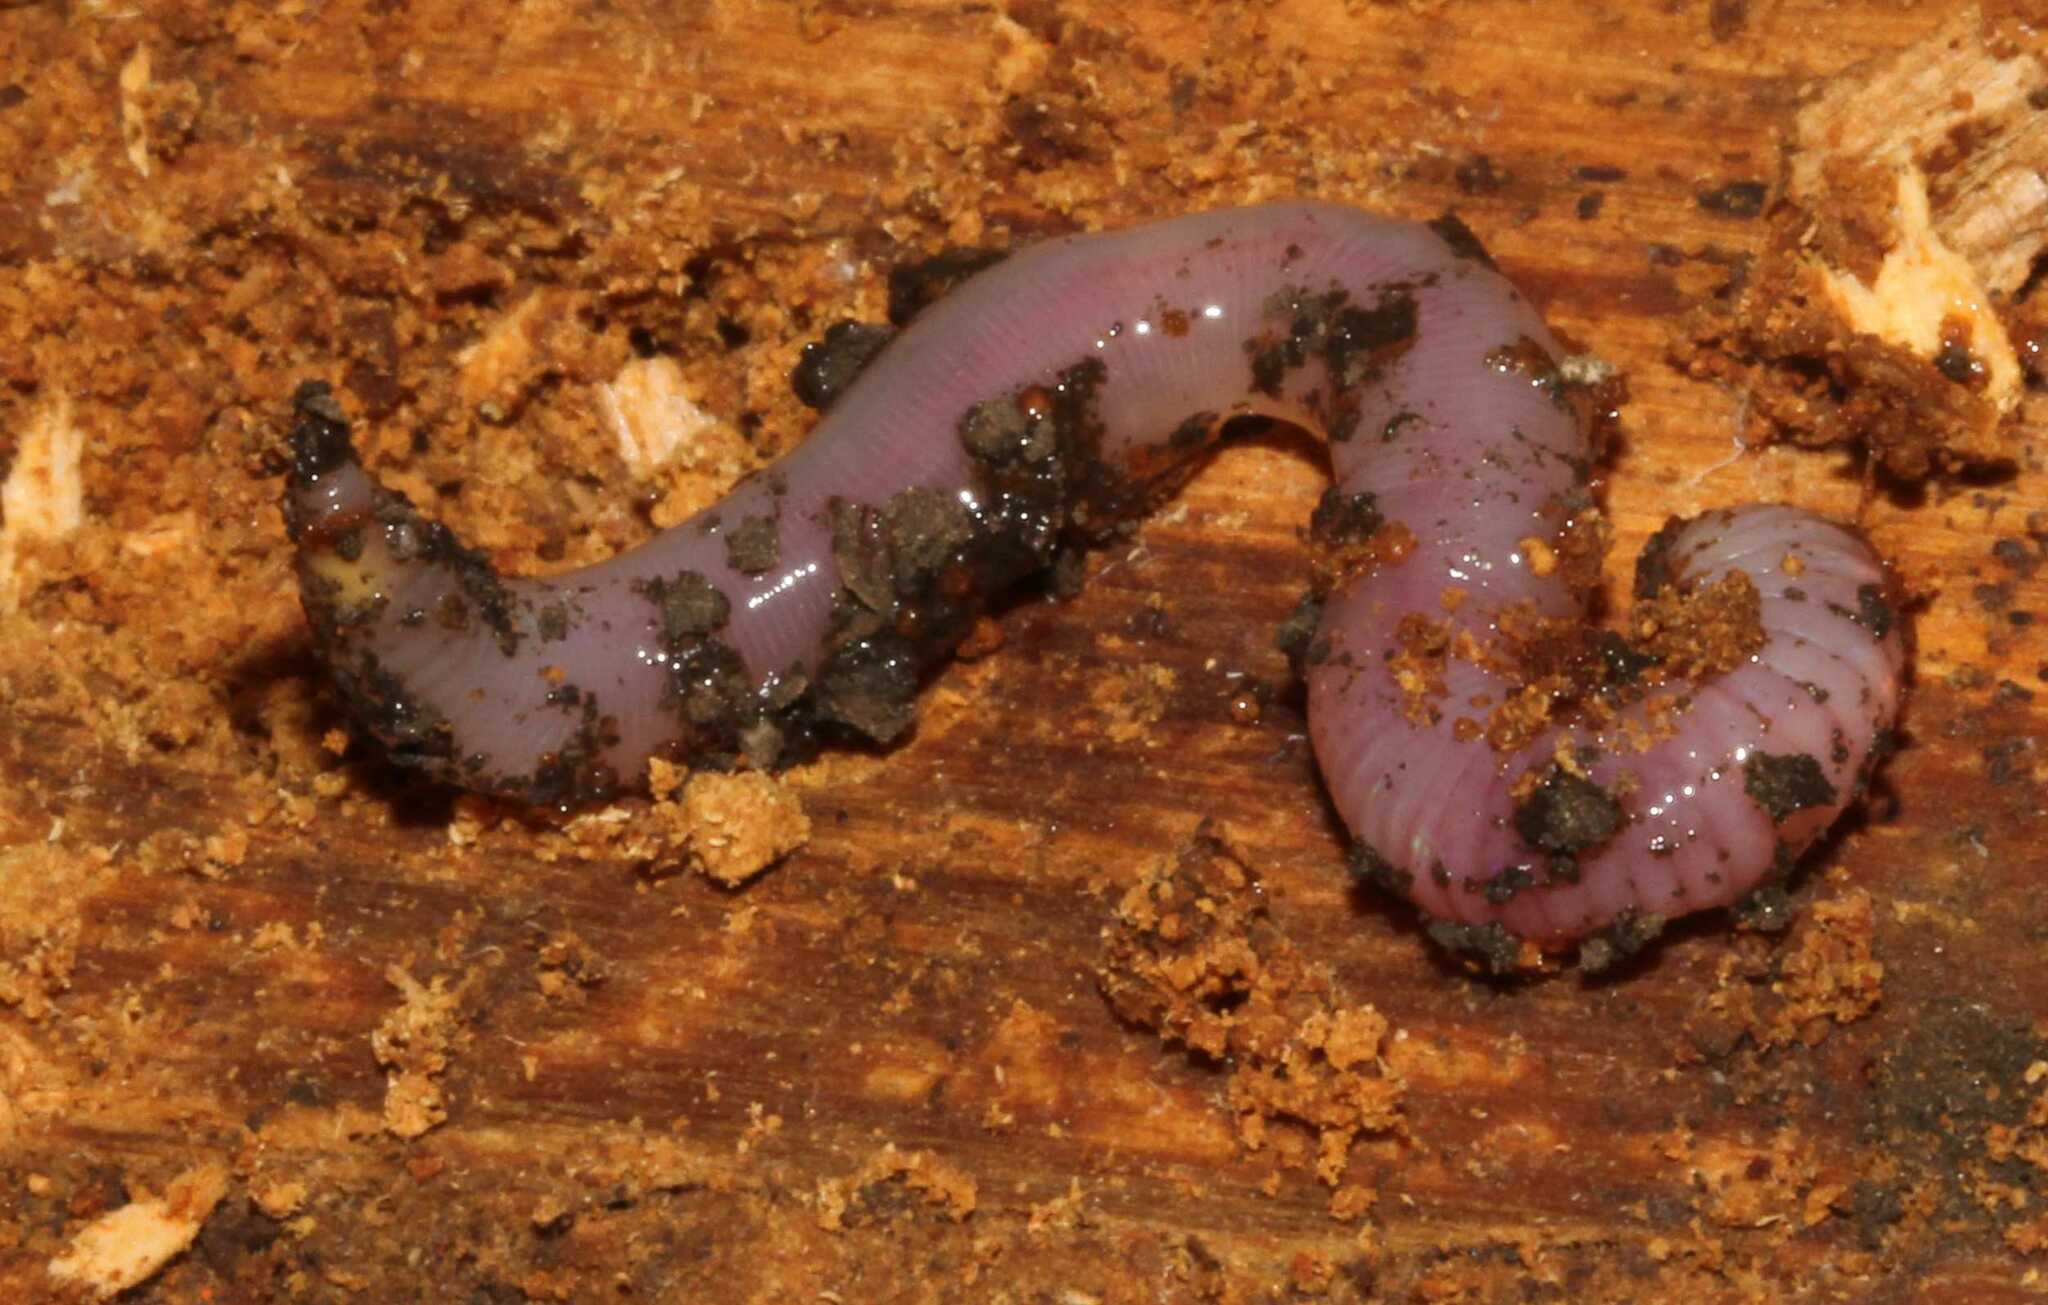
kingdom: Animalia
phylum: Annelida
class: Clitellata
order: Crassiclitellata
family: Lumbricidae
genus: Lumbricus
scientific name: Lumbricus
